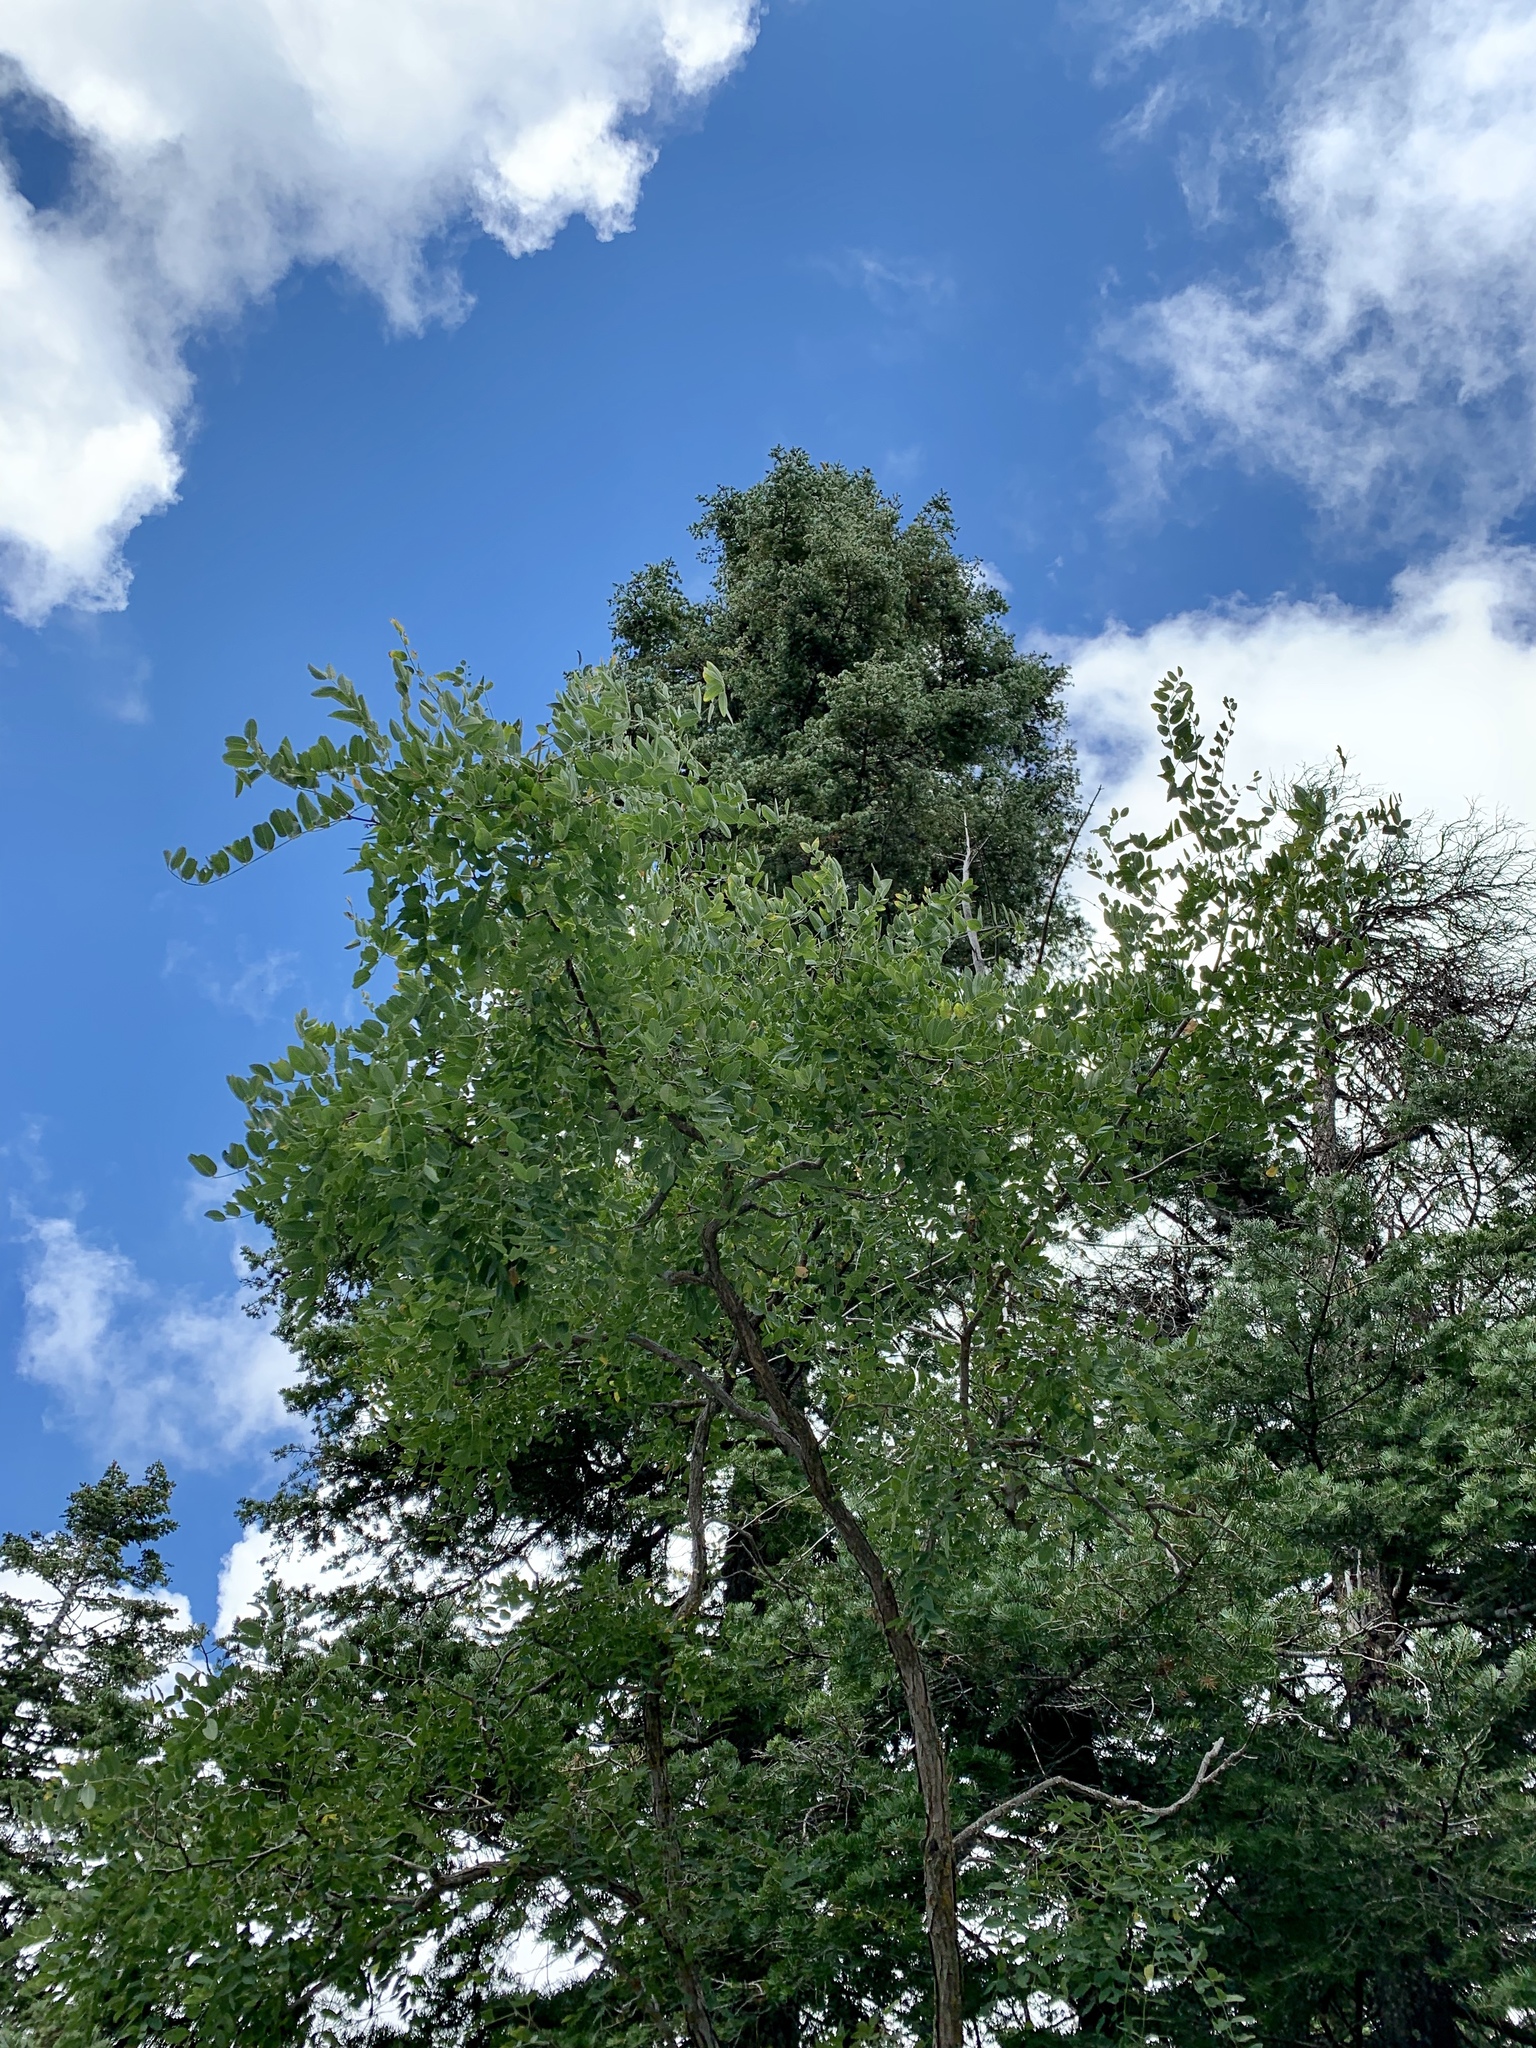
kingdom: Plantae
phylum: Tracheophyta
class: Magnoliopsida
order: Fabales
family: Fabaceae
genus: Robinia
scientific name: Robinia neomexicana
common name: New mexico locust
